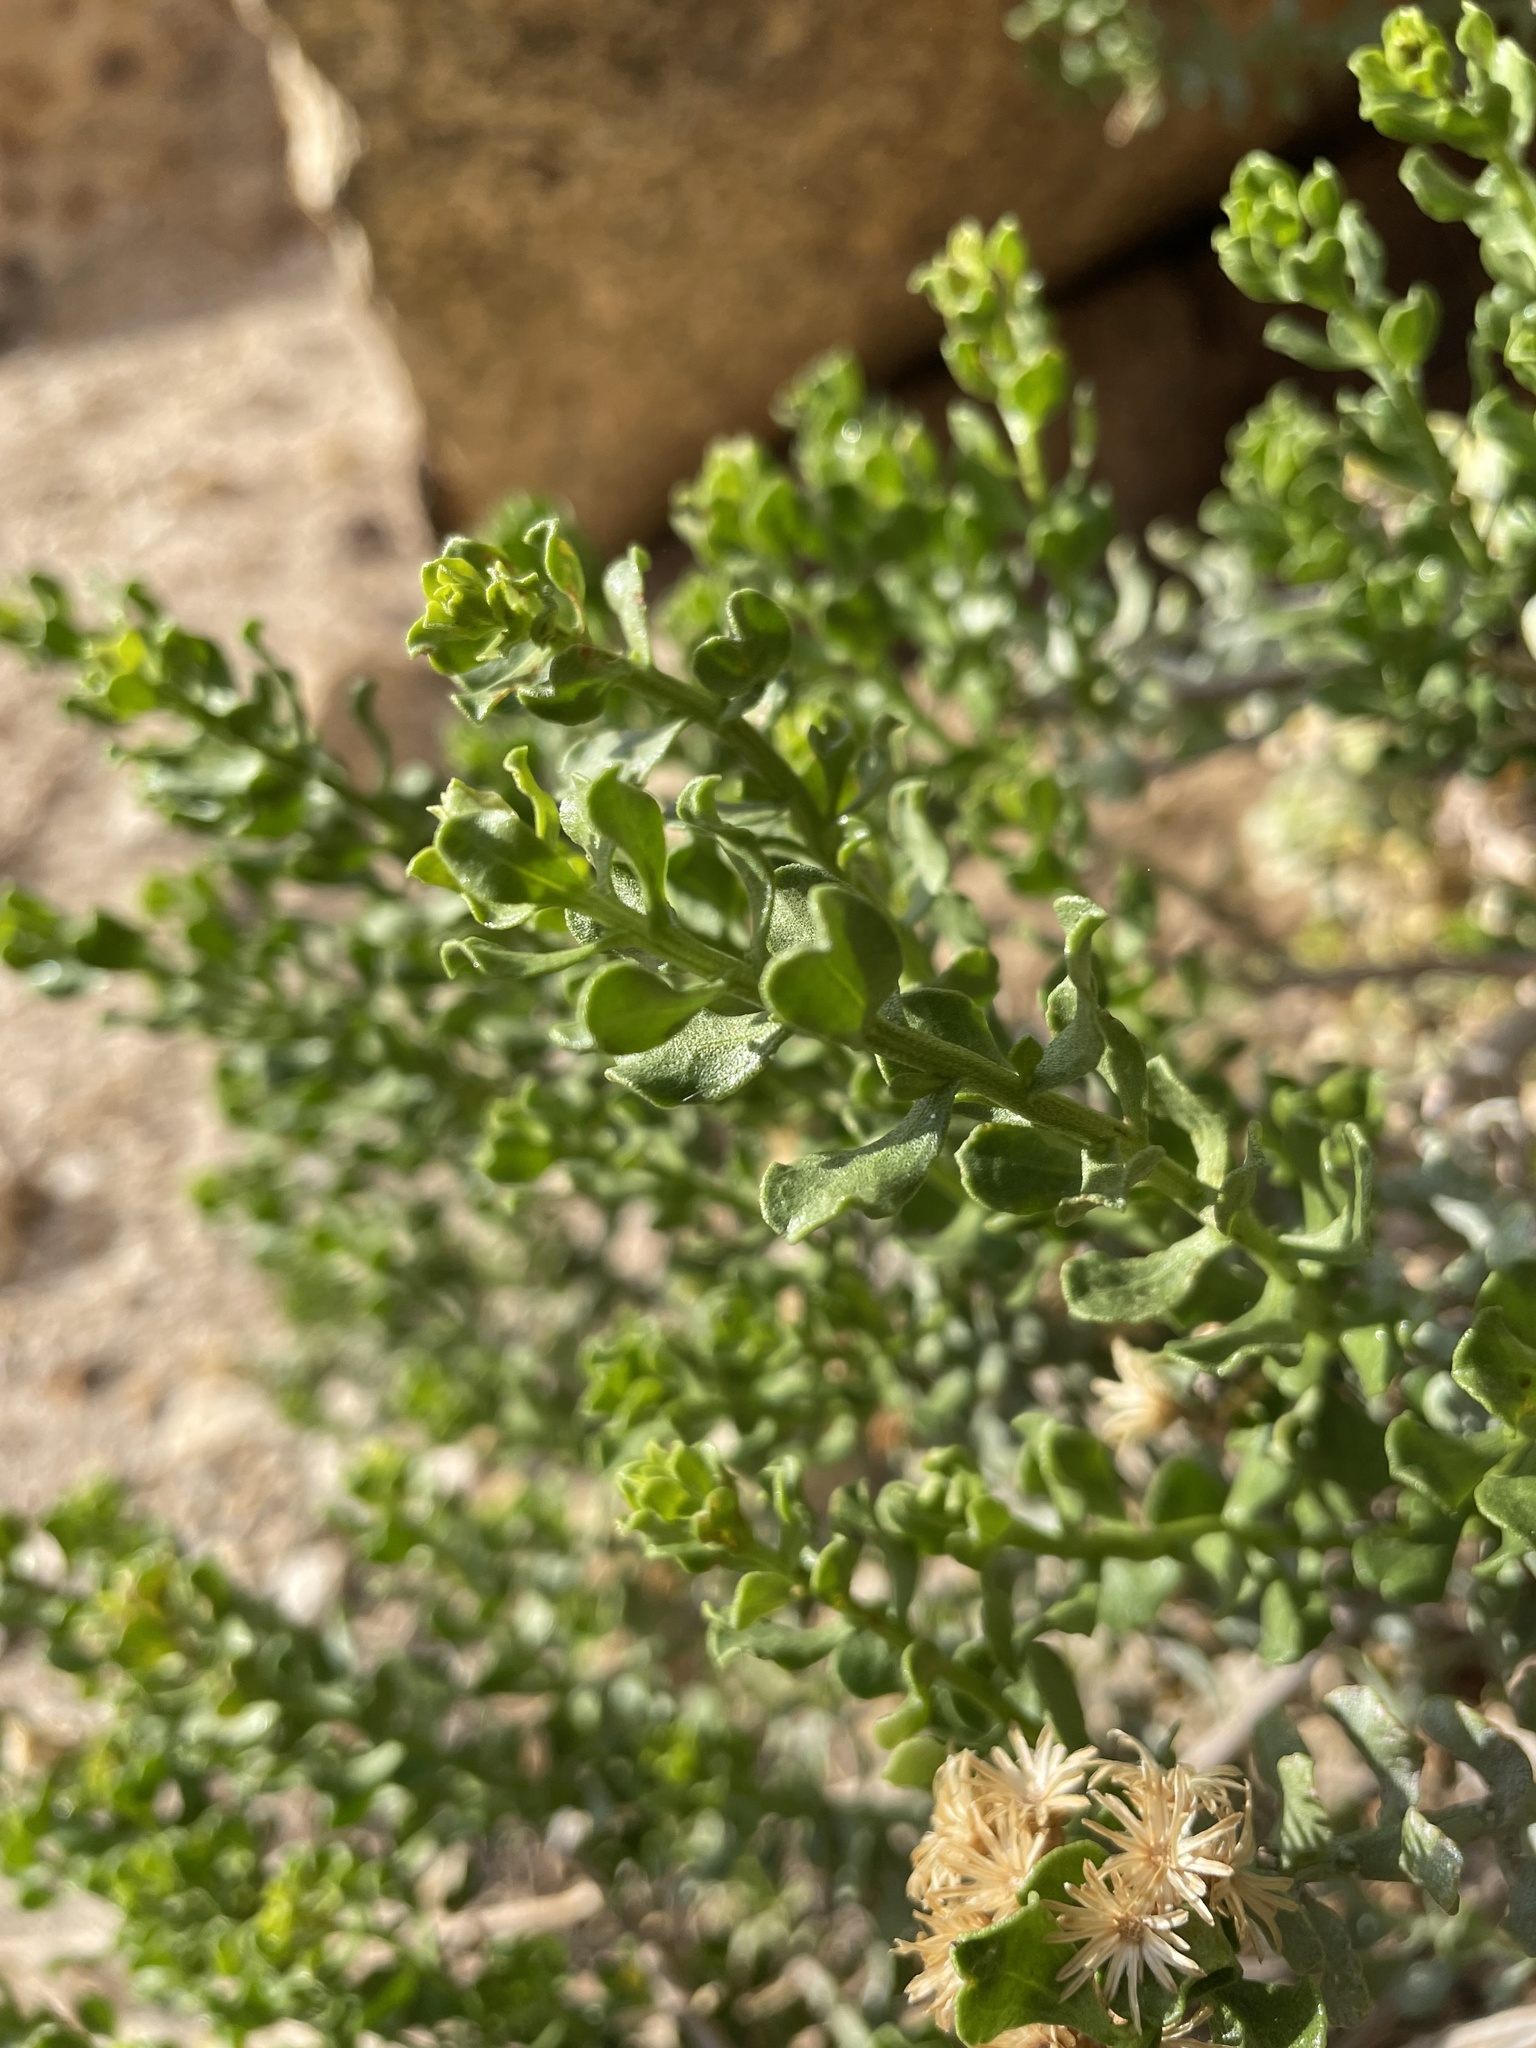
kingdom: Plantae
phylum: Tracheophyta
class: Magnoliopsida
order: Asterales
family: Asteraceae
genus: Ericameria
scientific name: Ericameria cuneata
